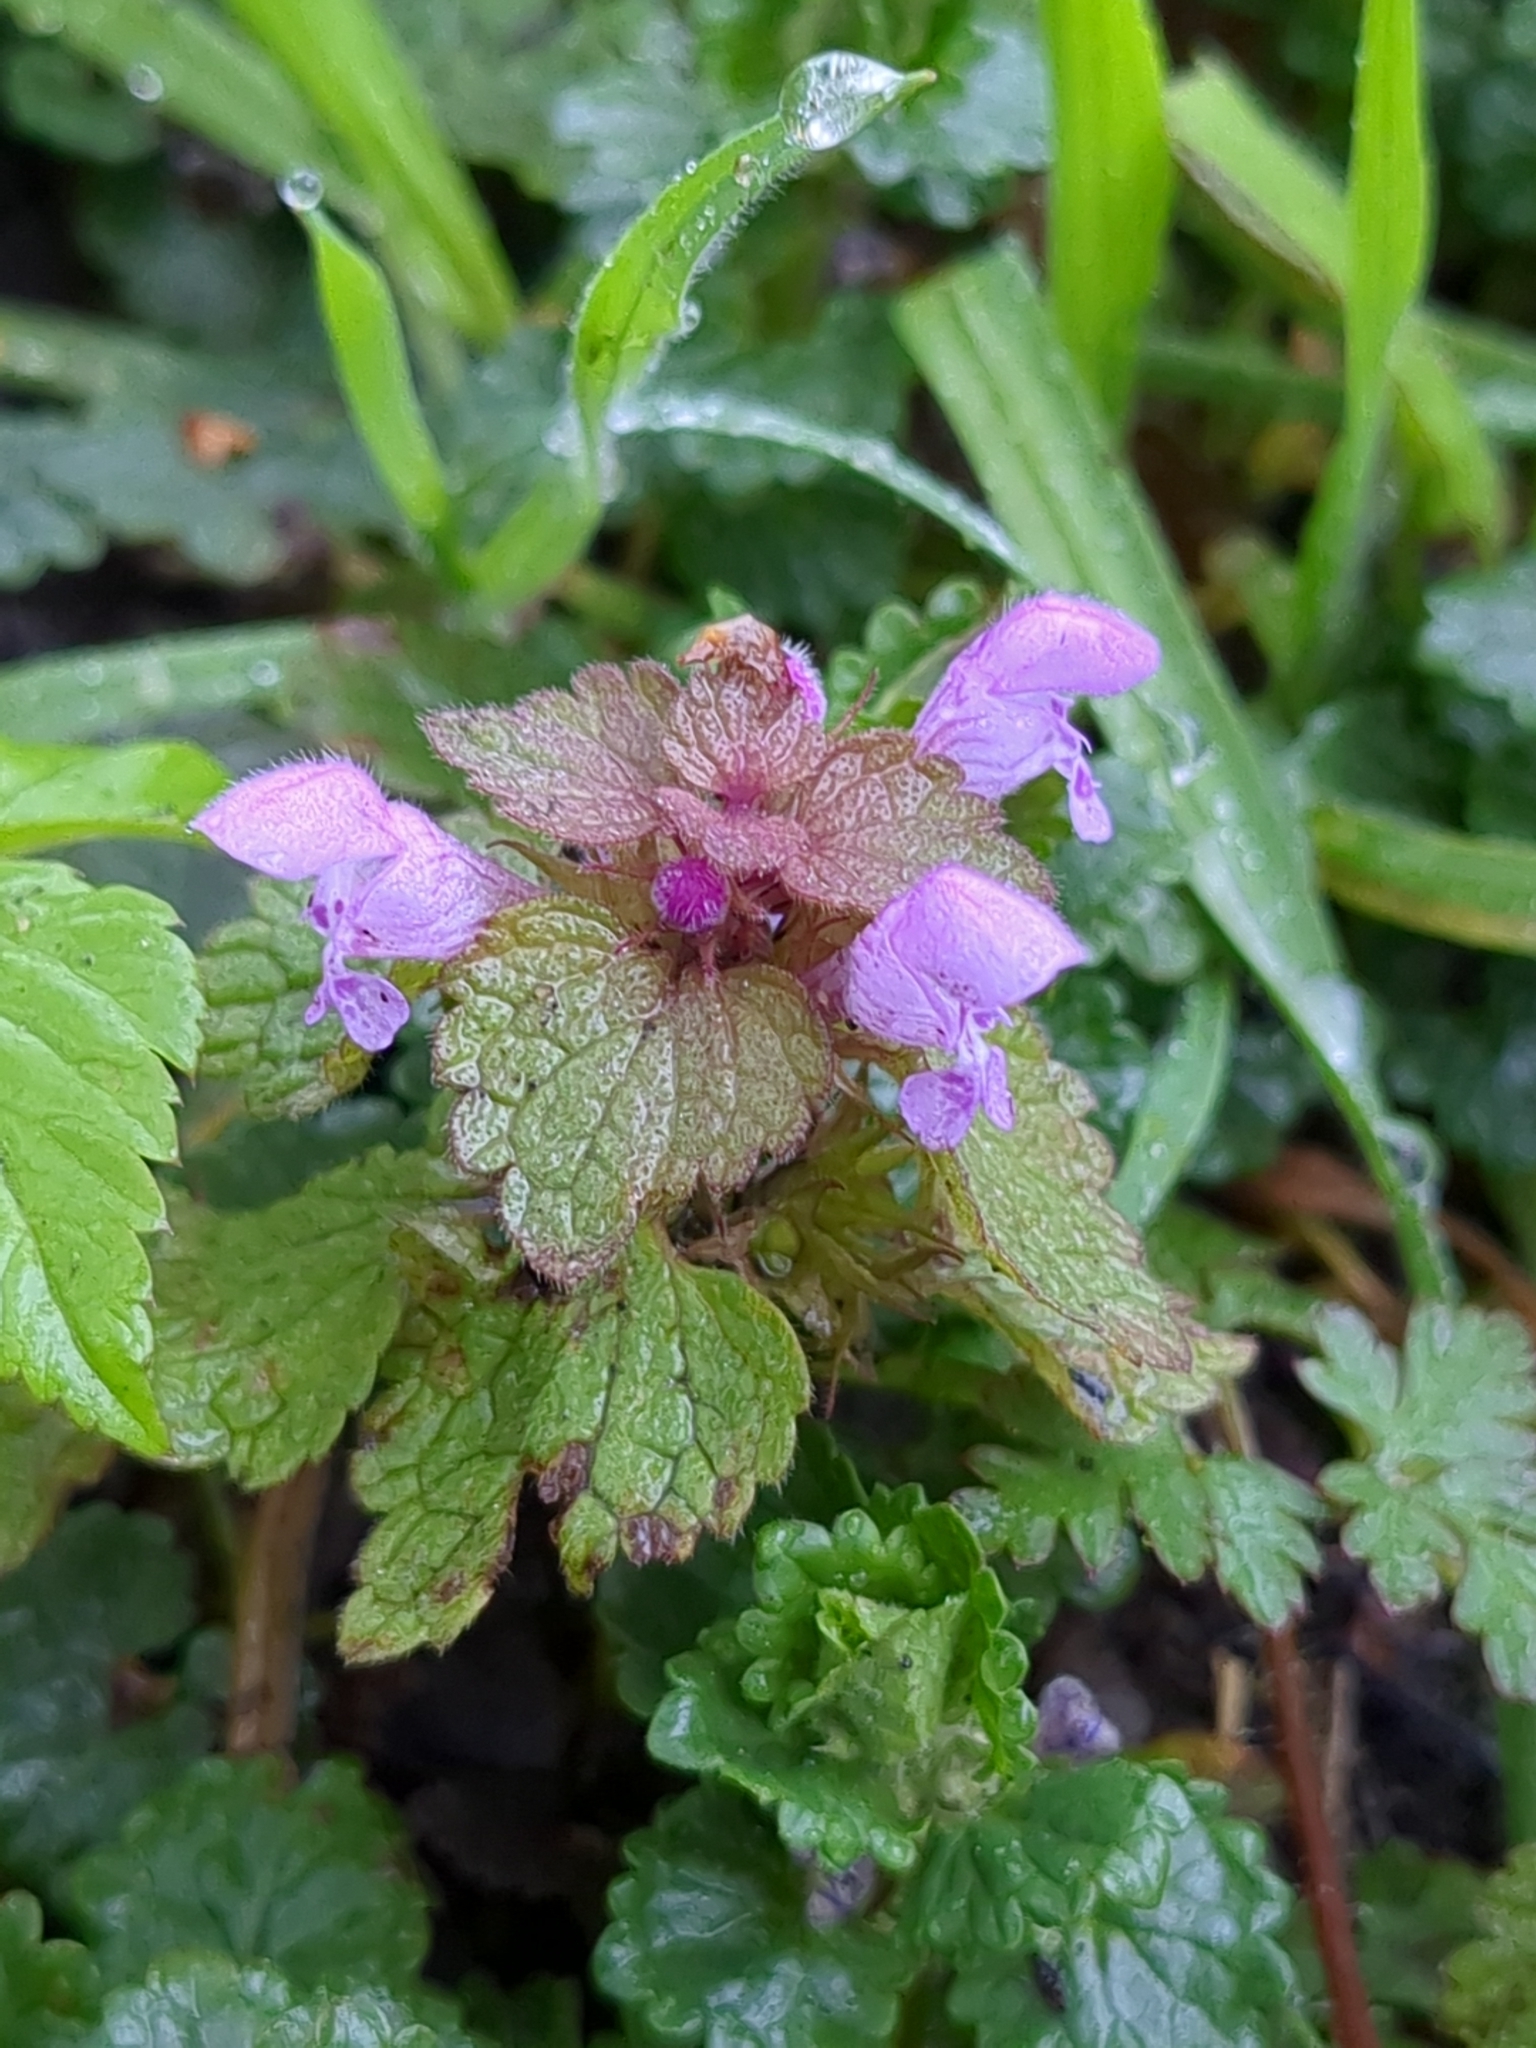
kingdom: Plantae
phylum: Tracheophyta
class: Magnoliopsida
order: Lamiales
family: Lamiaceae
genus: Lamium
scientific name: Lamium purpureum
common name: Red dead-nettle
